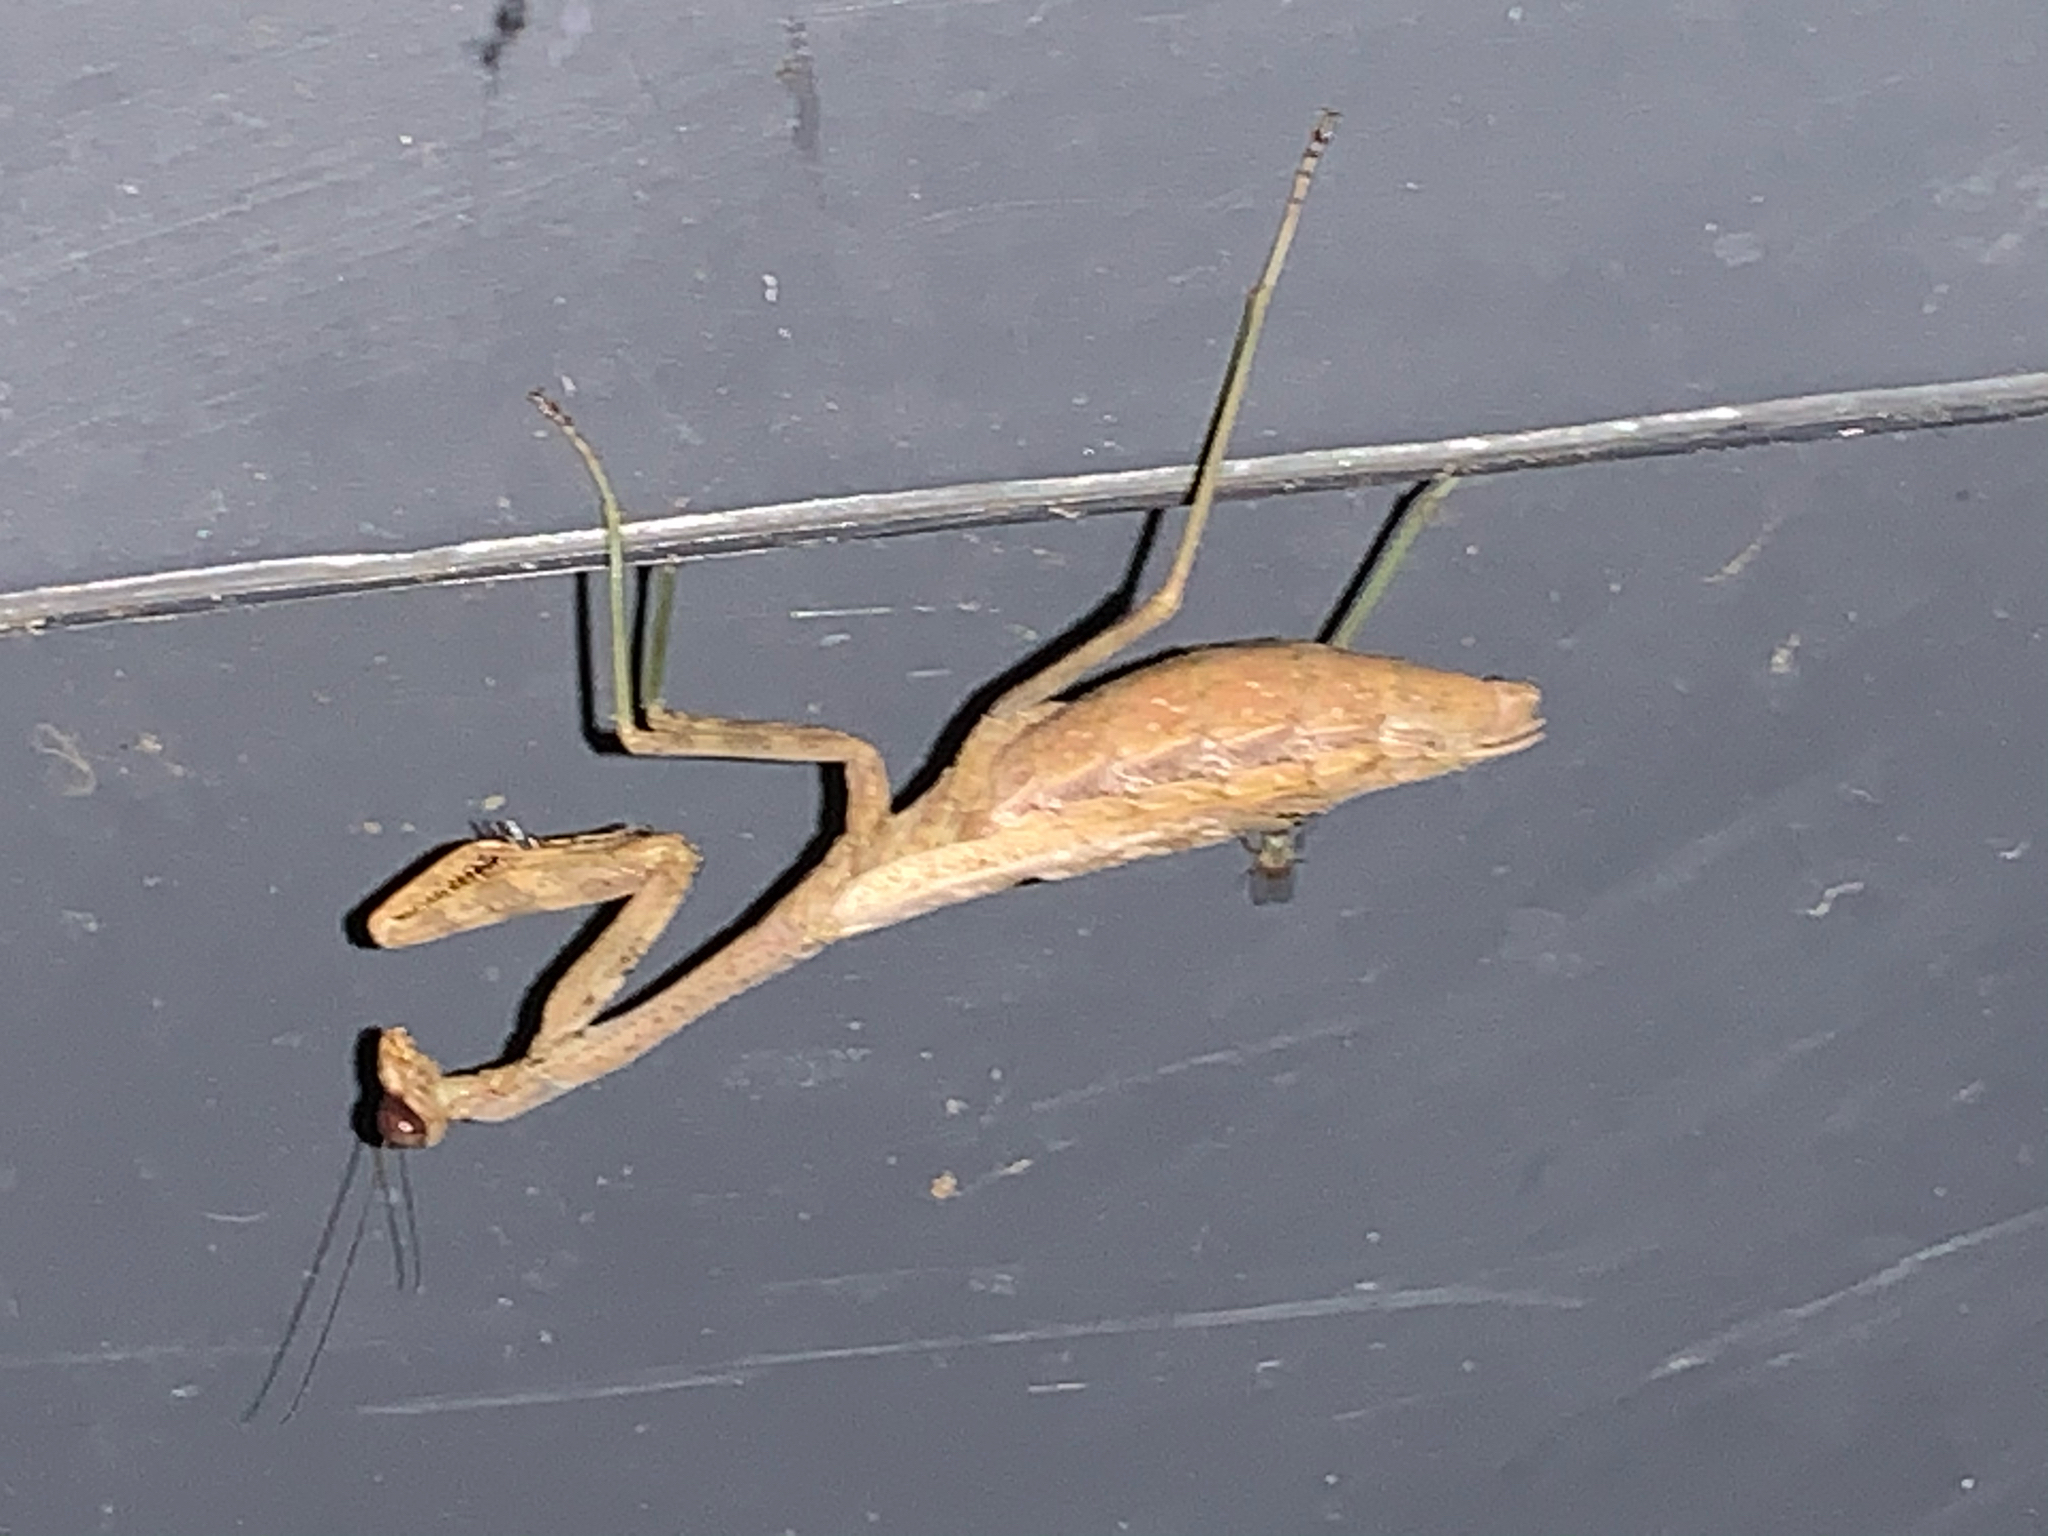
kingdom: Animalia
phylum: Arthropoda
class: Insecta
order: Mantodea
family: Mantidae
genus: Stagmomantis
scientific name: Stagmomantis carolina
